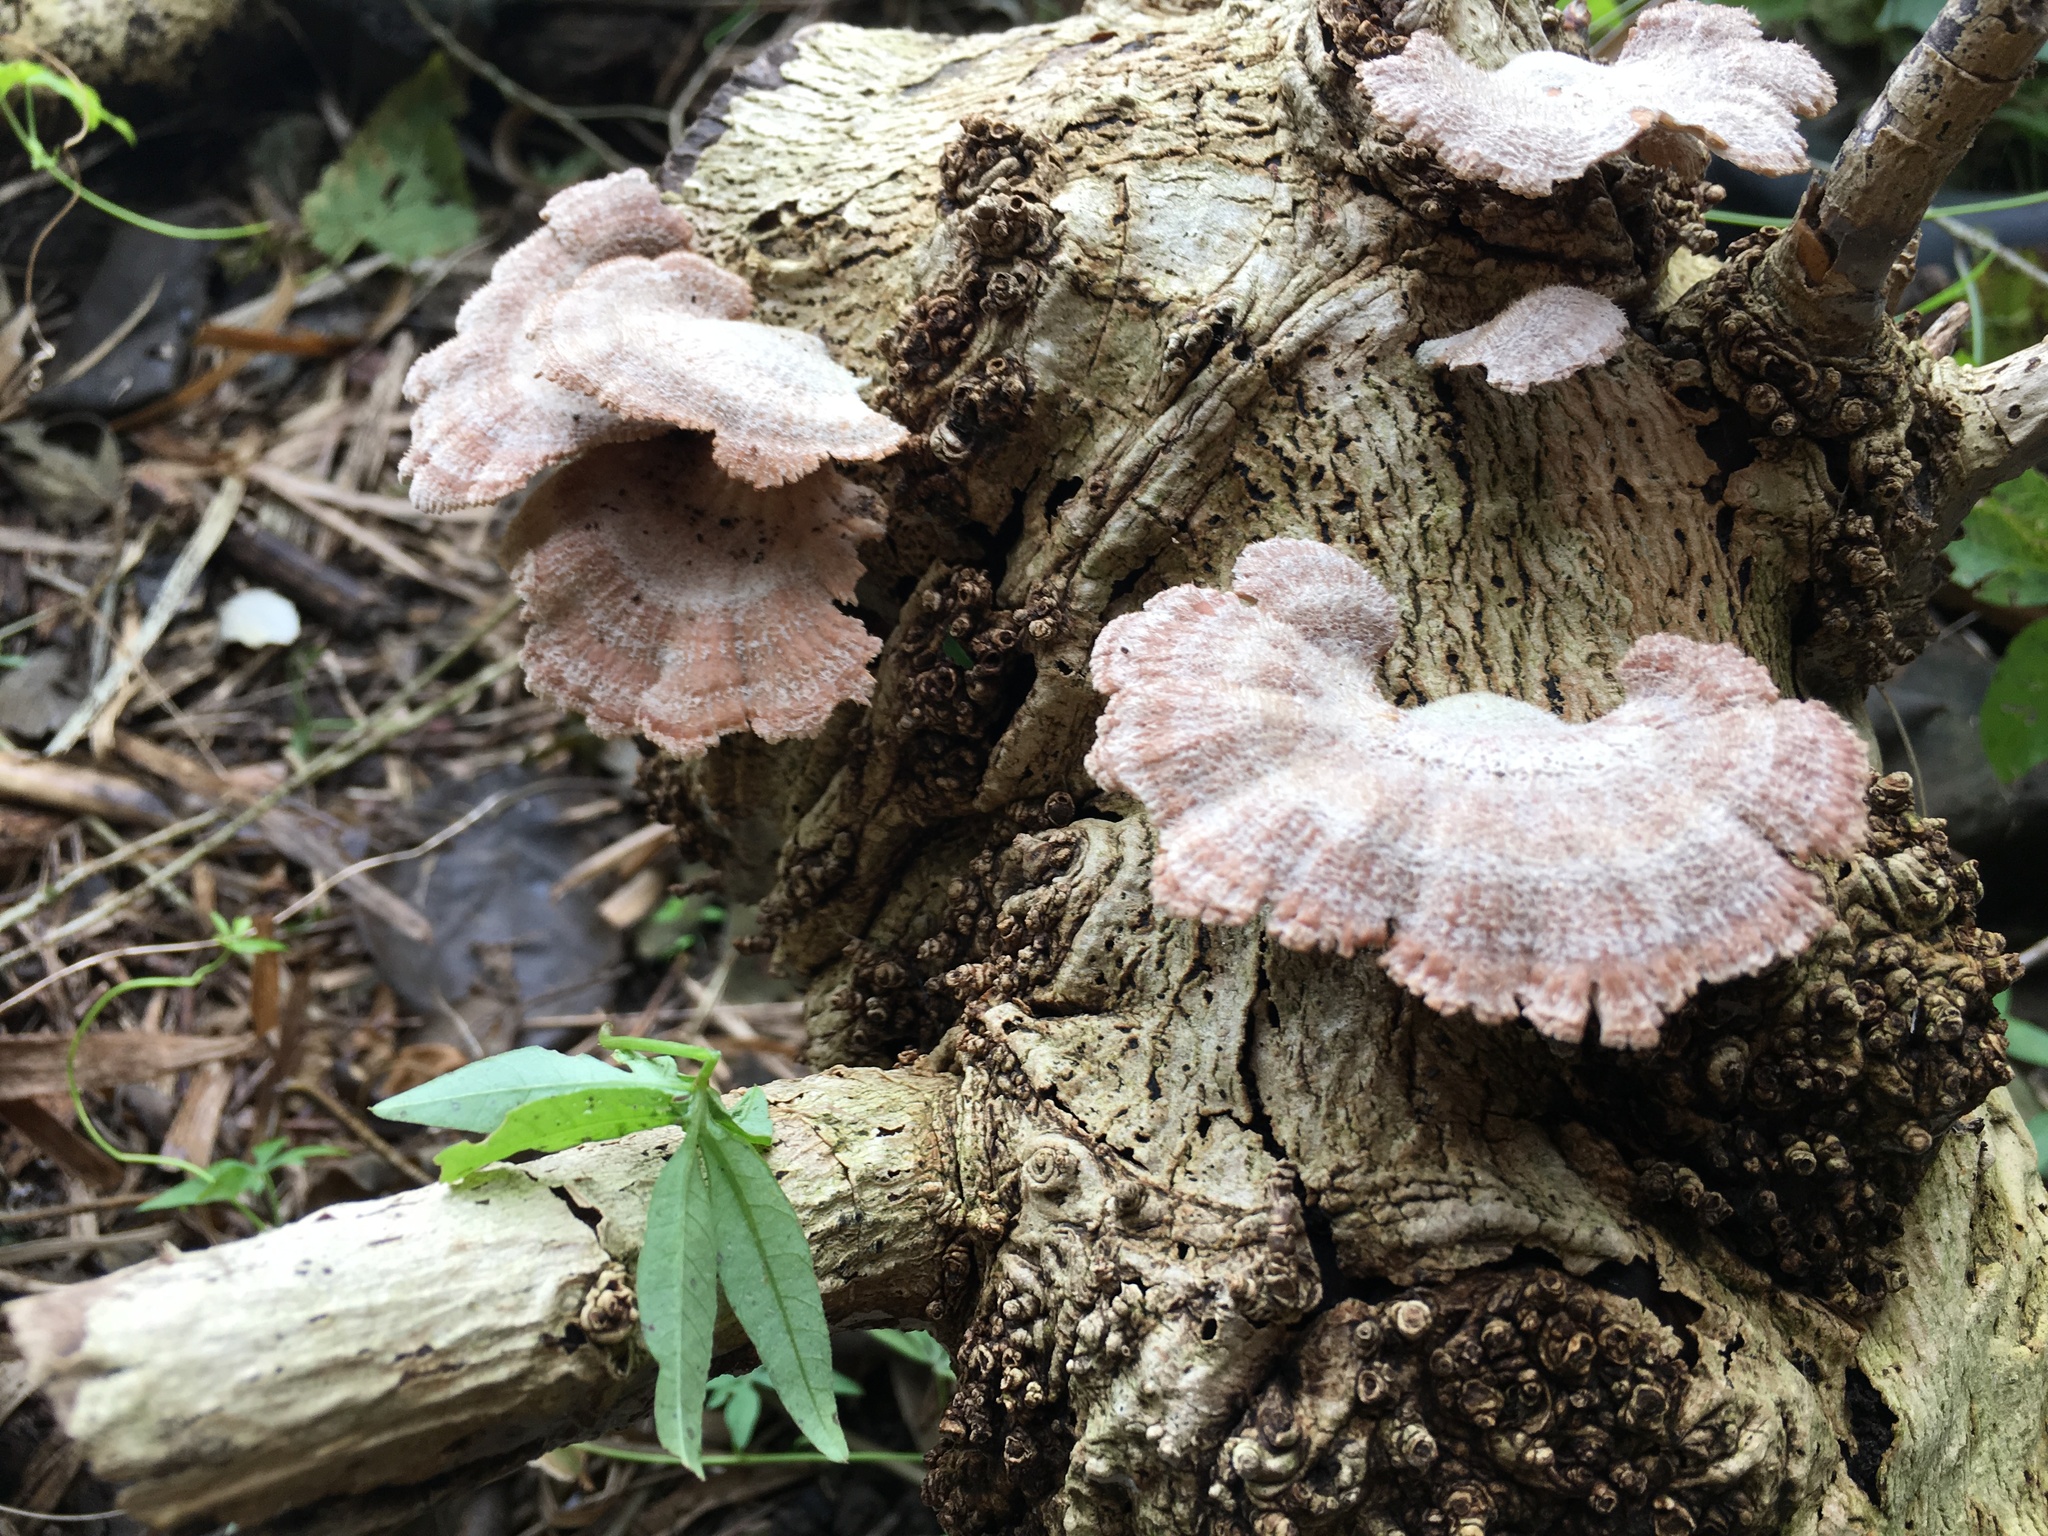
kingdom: Fungi
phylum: Basidiomycota
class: Agaricomycetes
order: Agaricales
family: Schizophyllaceae
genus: Schizophyllum
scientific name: Schizophyllum commune
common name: Common porecrust
